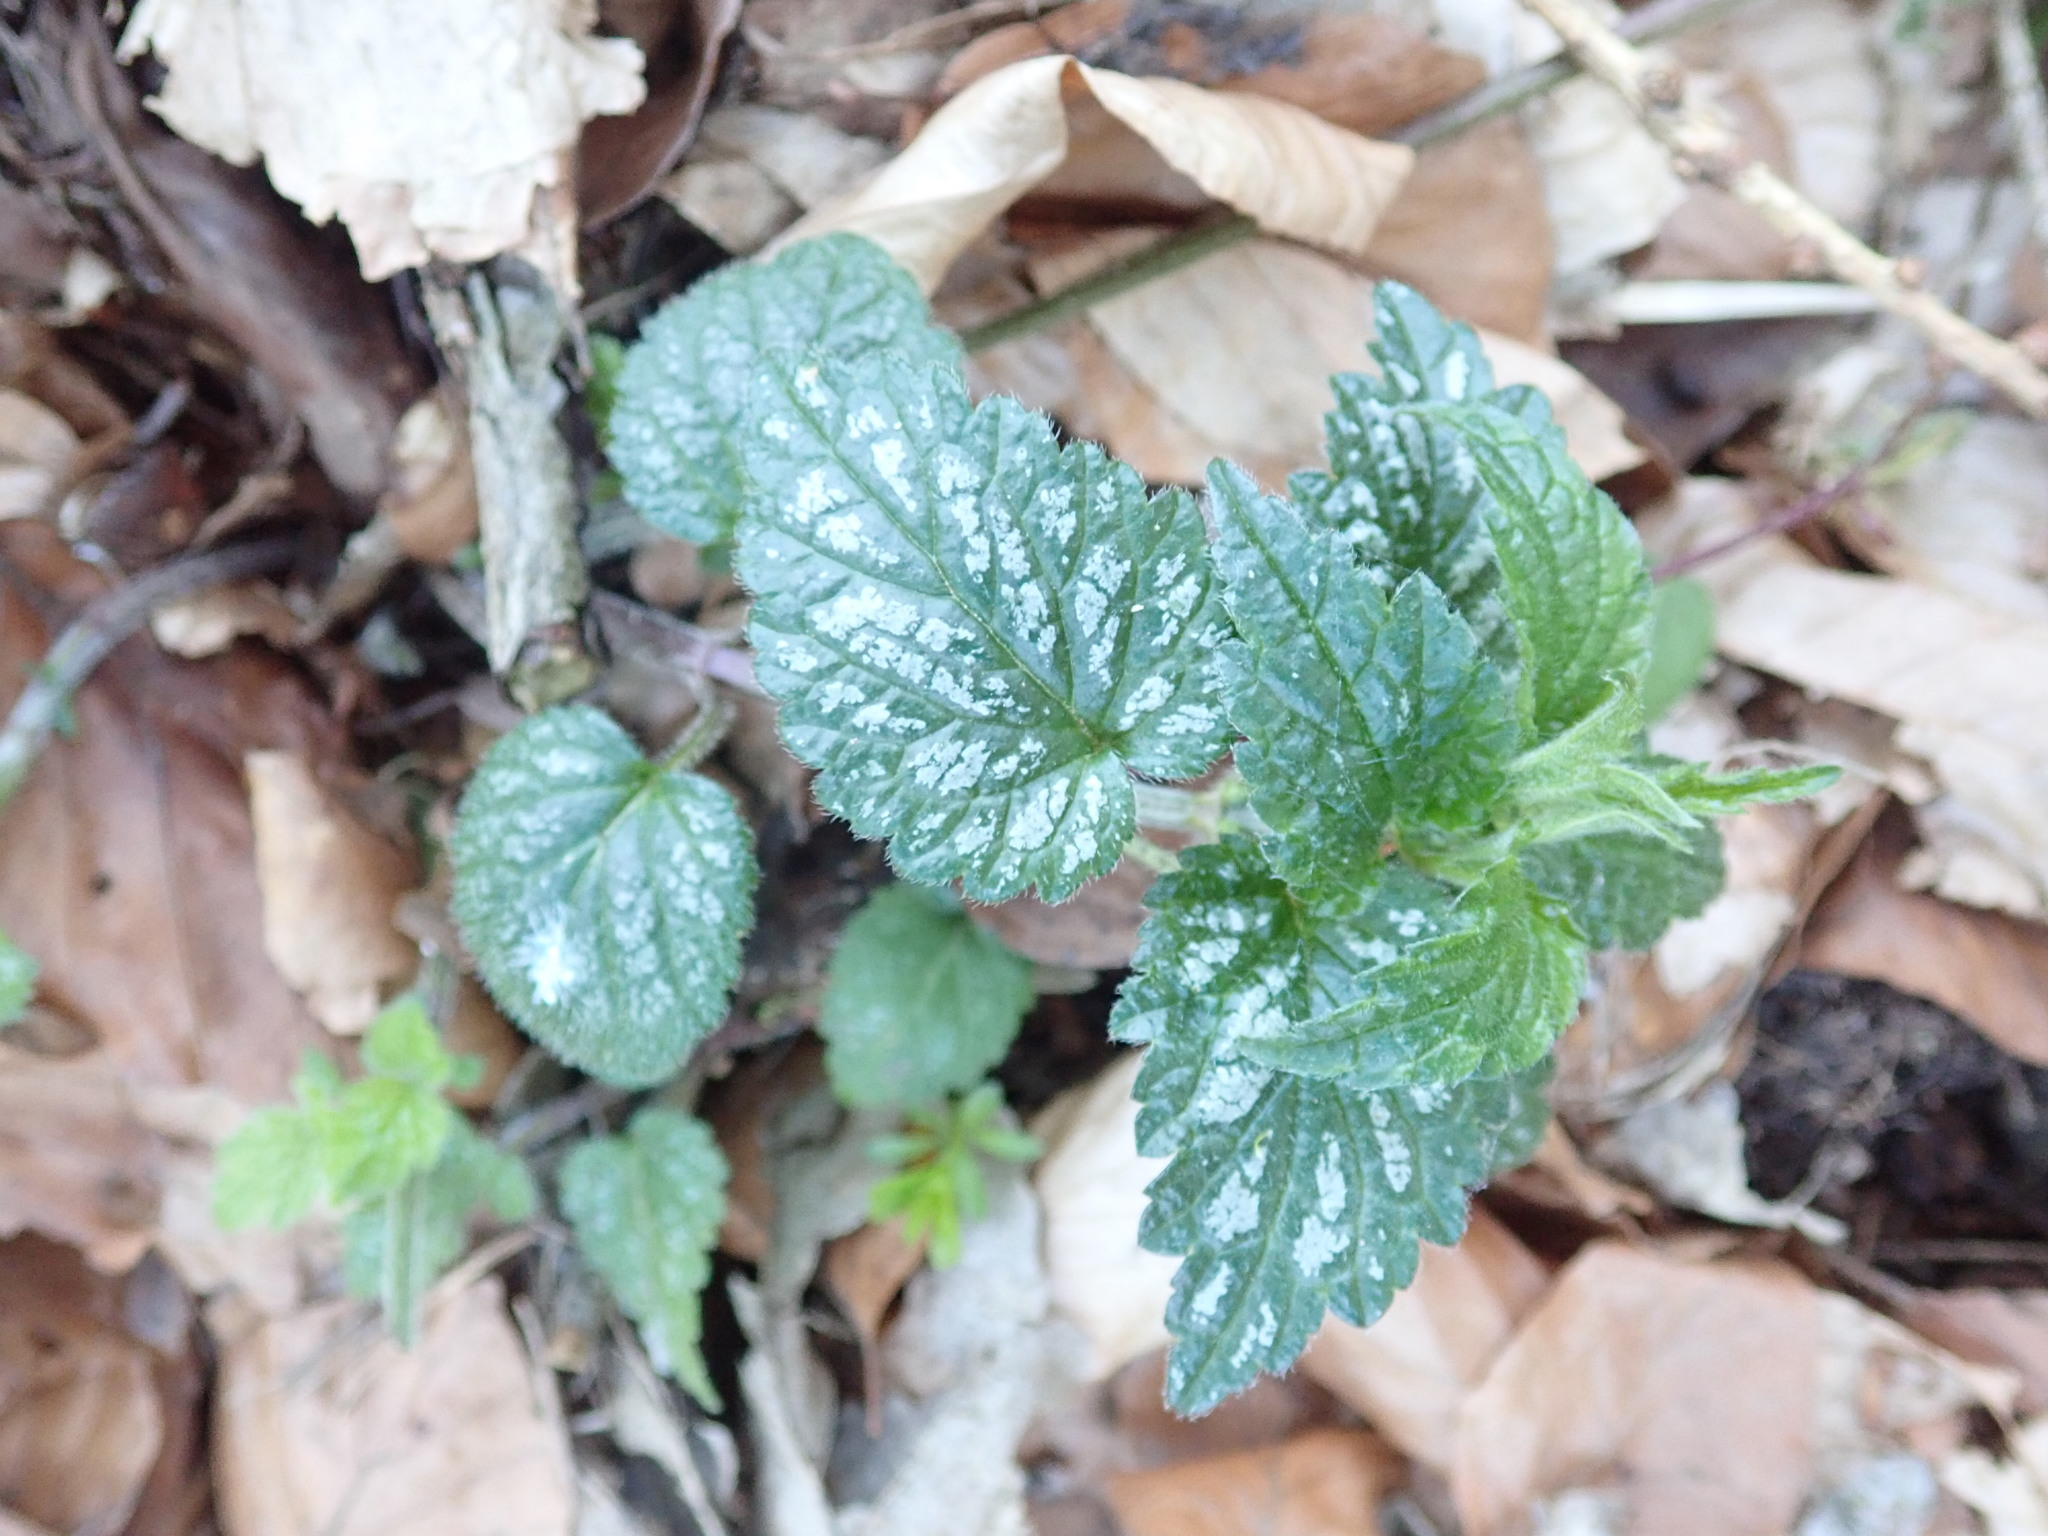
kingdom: Plantae
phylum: Tracheophyta
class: Magnoliopsida
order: Lamiales
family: Lamiaceae
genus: Lamium
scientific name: Lamium galeobdolon
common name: Yellow archangel
